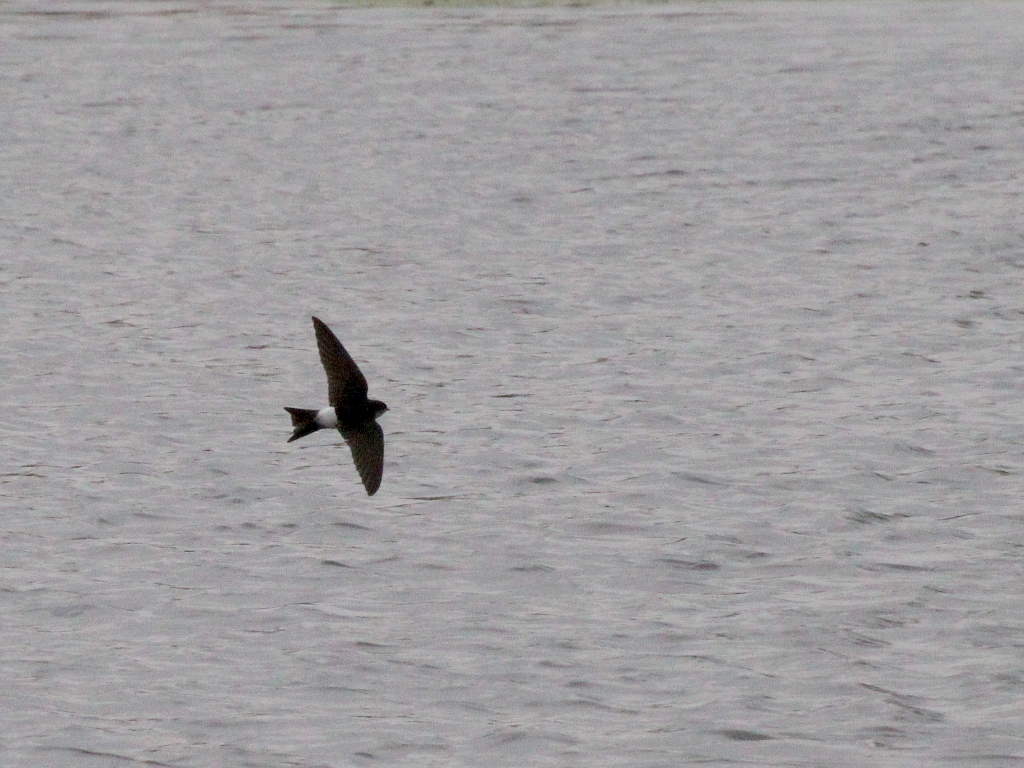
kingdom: Animalia
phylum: Chordata
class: Aves
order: Passeriformes
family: Hirundinidae
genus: Delichon
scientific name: Delichon urbicum
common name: Common house martin
